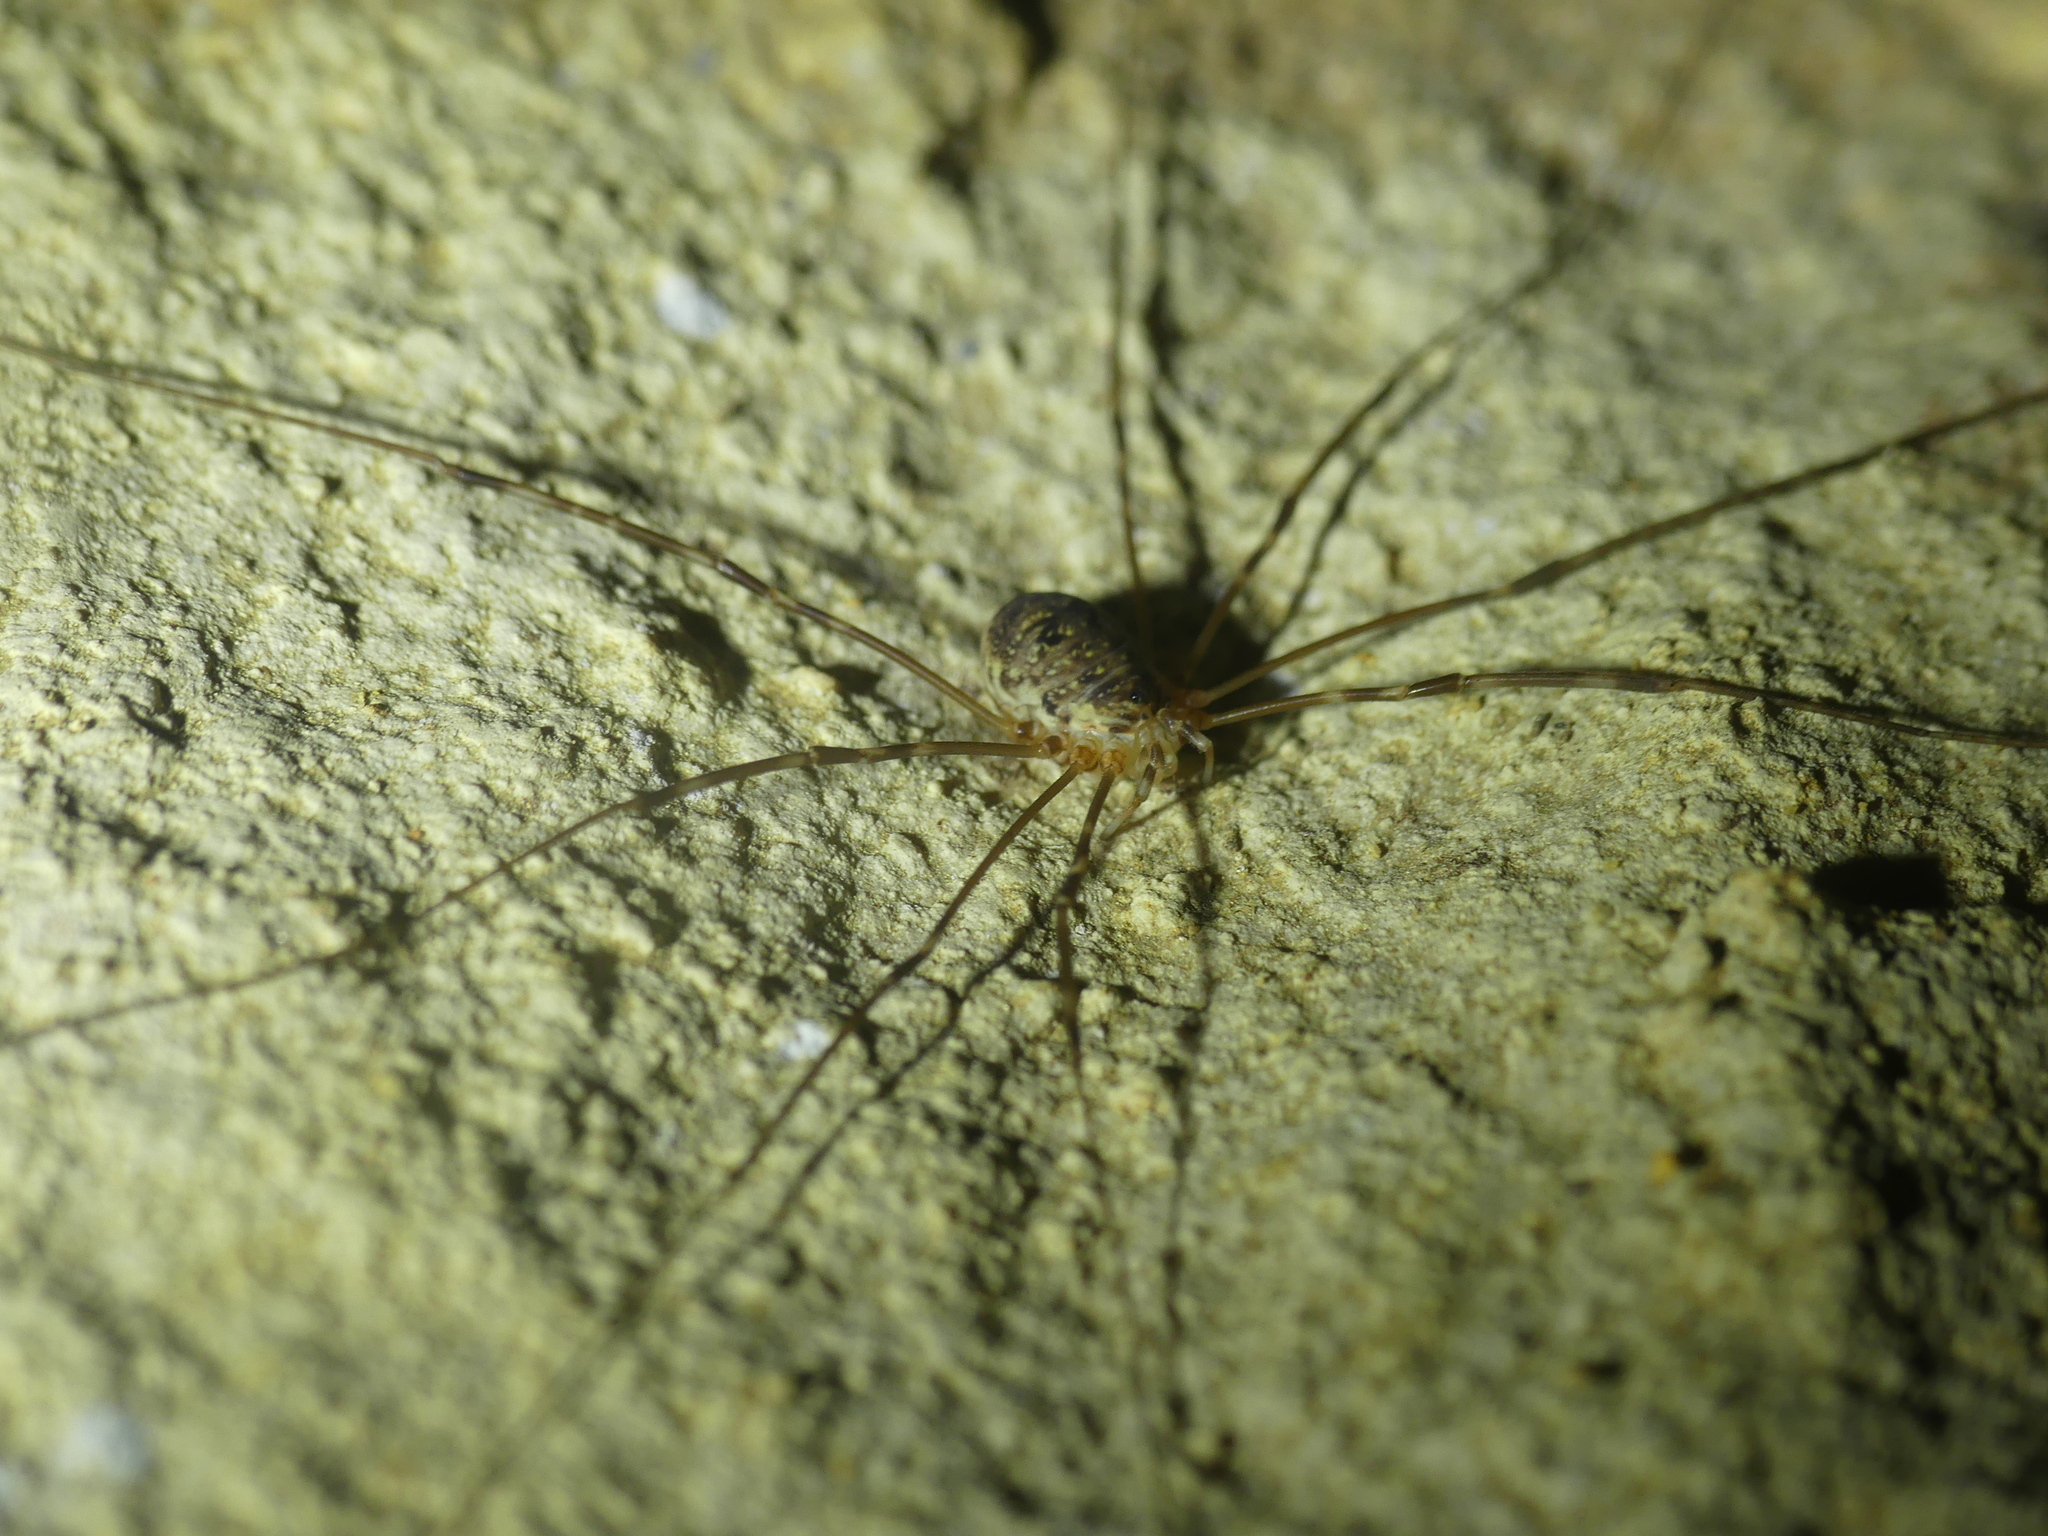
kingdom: Animalia
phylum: Arthropoda
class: Arachnida
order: Opiliones
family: Phalangiidae
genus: Amilenus
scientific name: Amilenus aurantiacus
